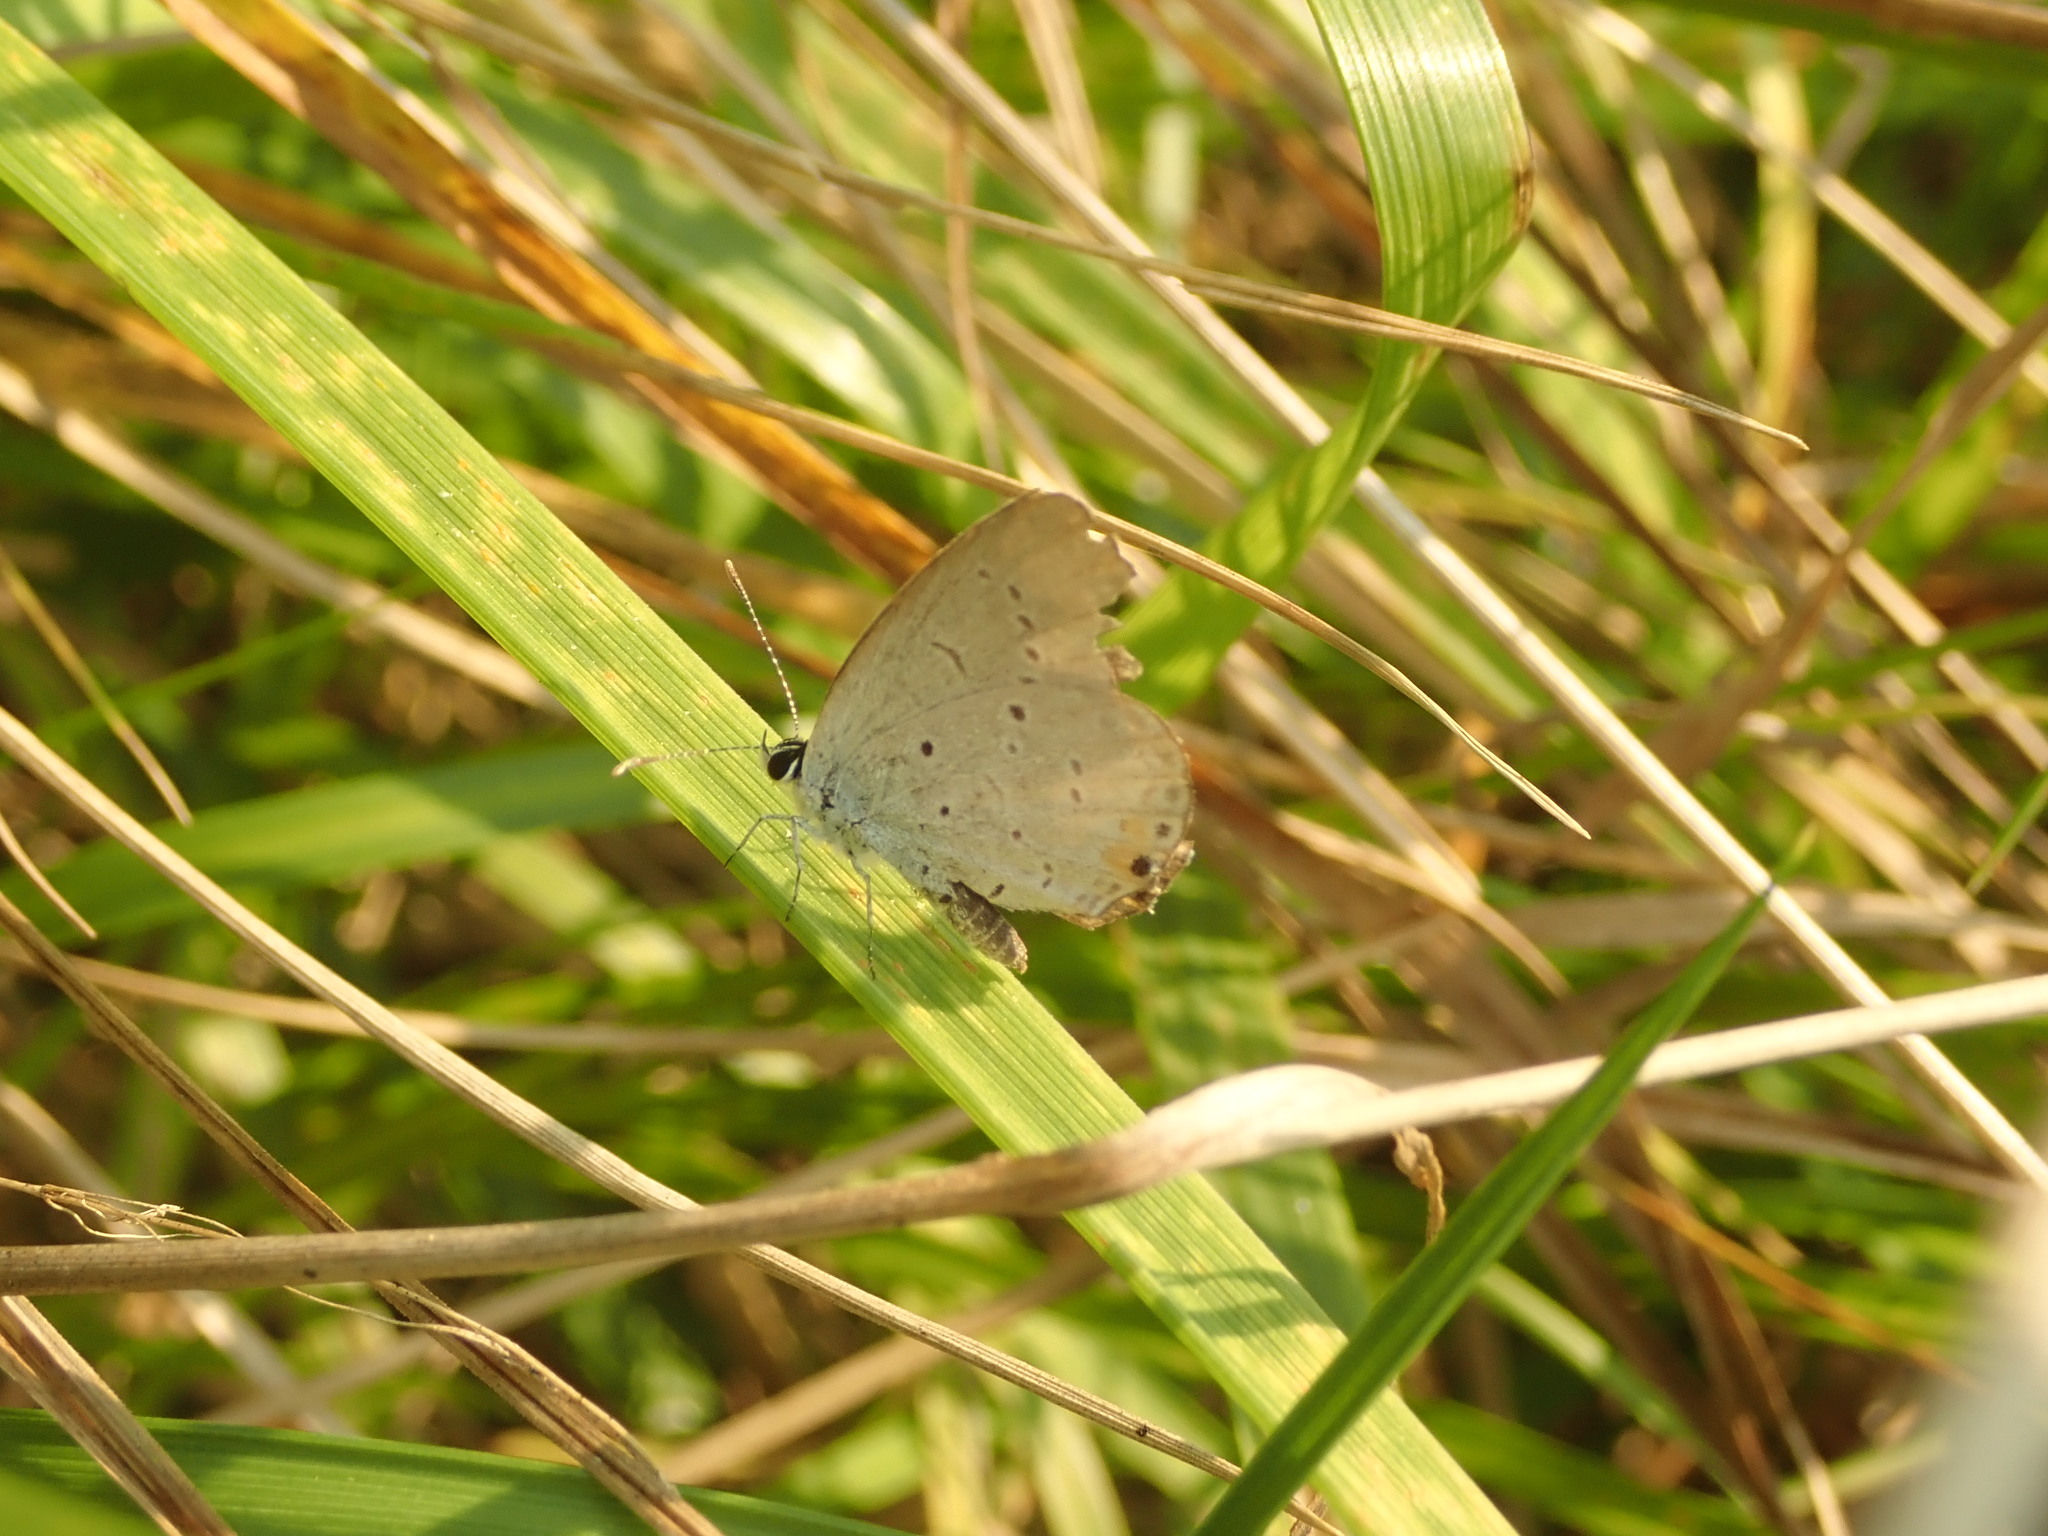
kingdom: Animalia
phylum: Arthropoda
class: Insecta
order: Lepidoptera
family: Lycaenidae
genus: Elkalyce
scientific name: Elkalyce comyntas
